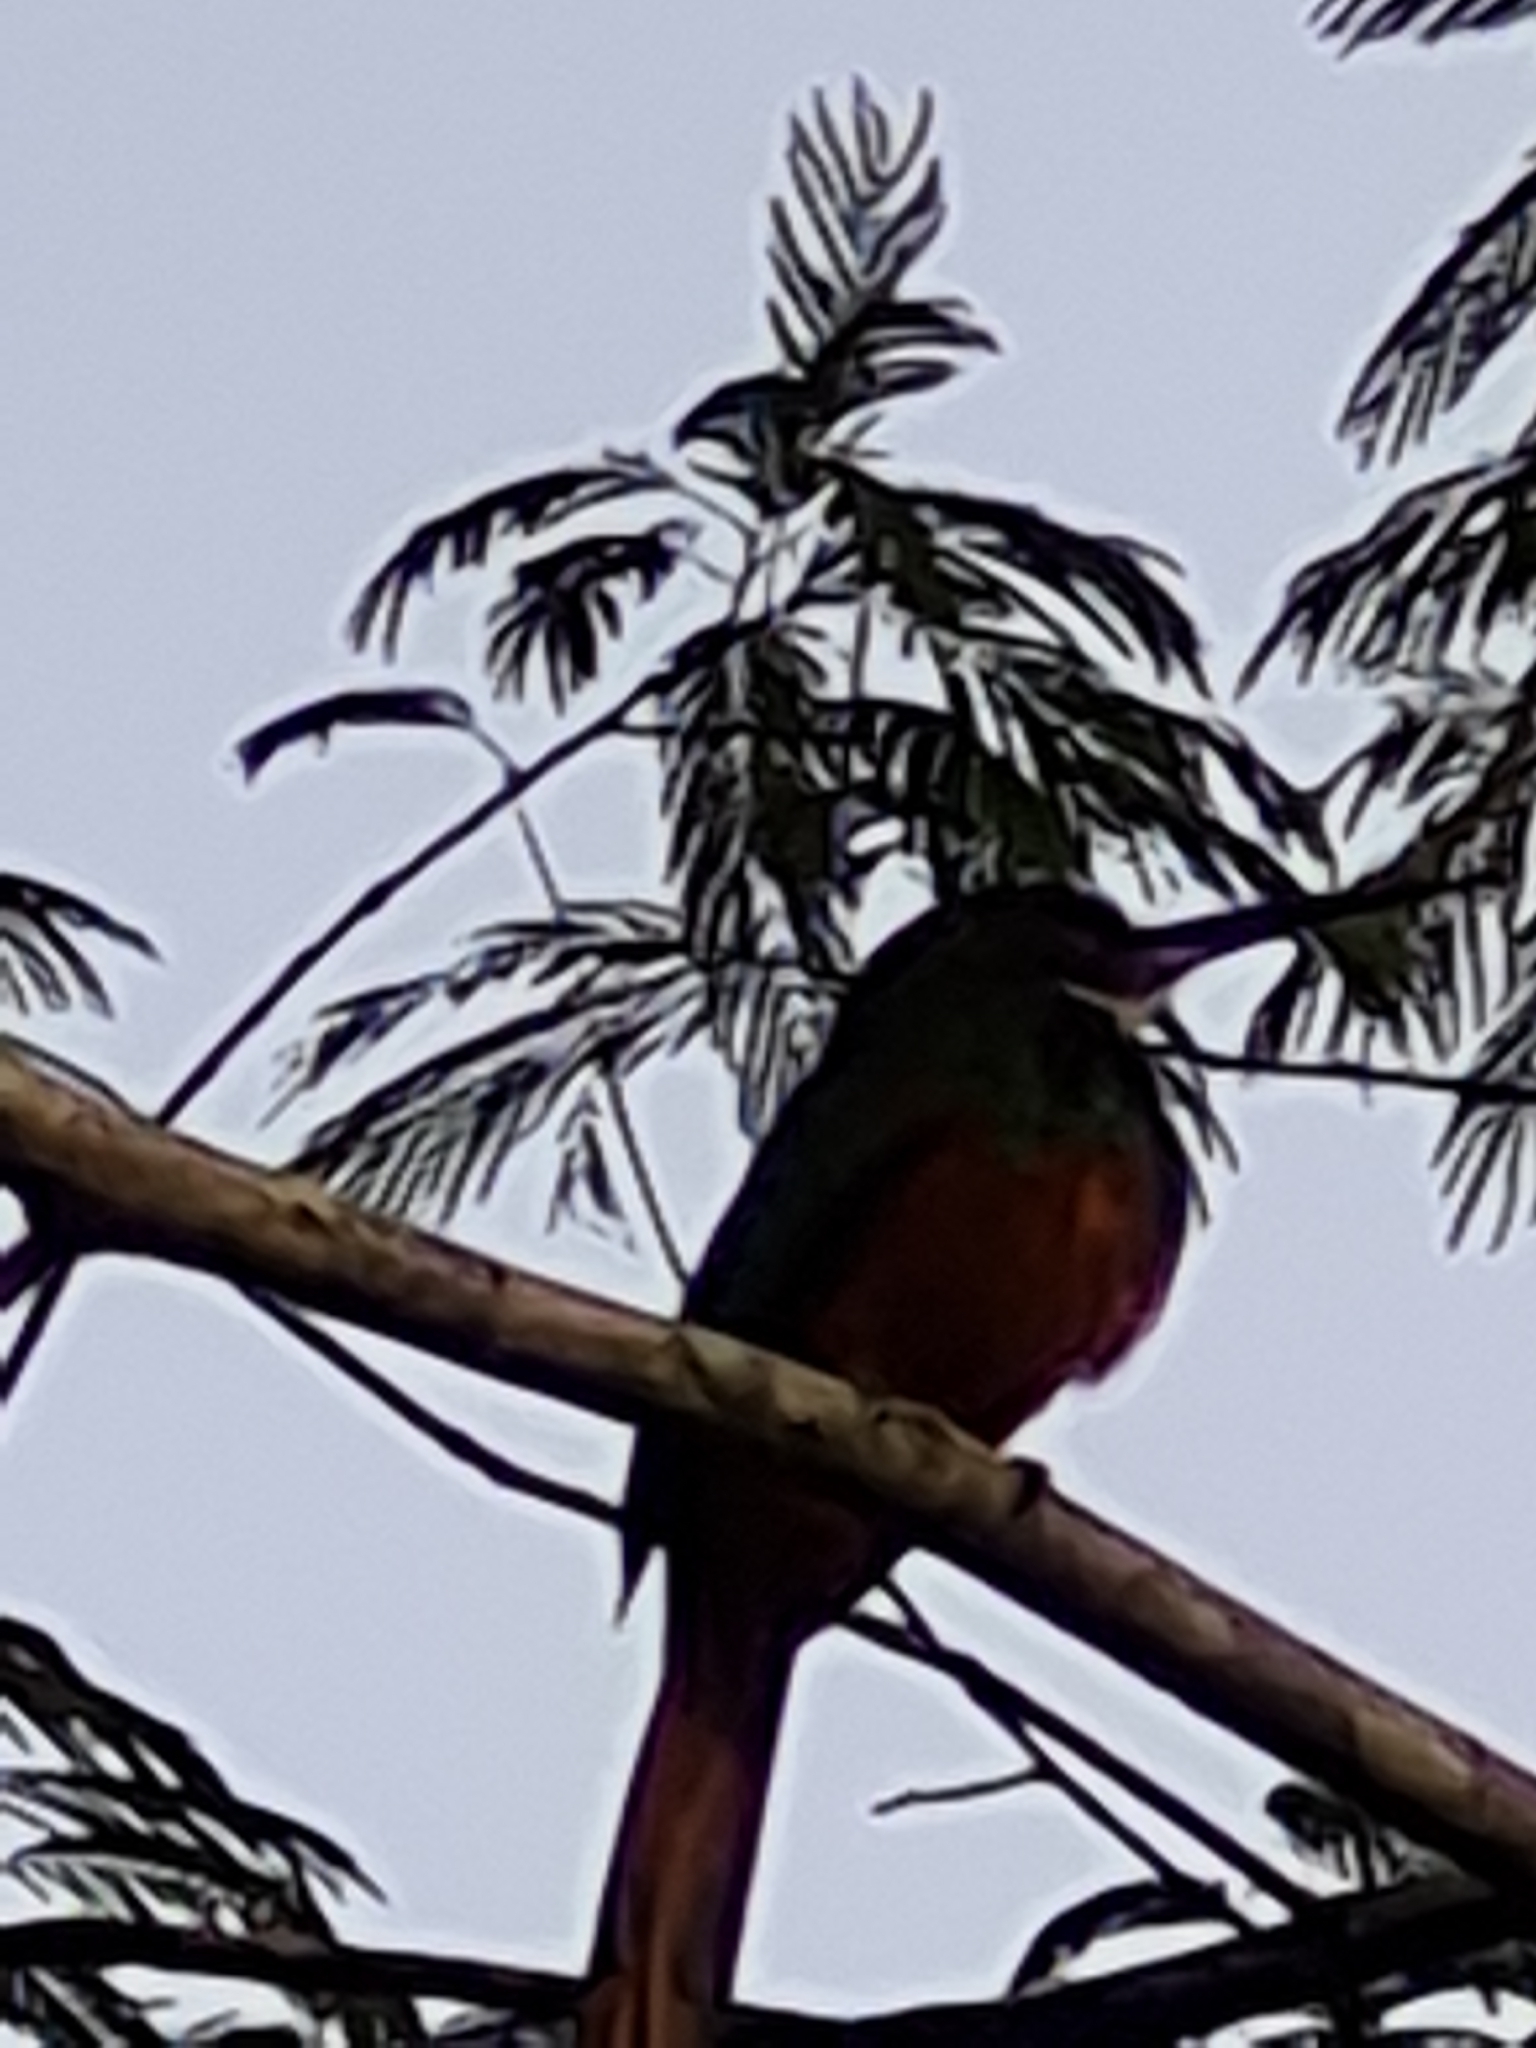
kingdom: Animalia
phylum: Chordata
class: Aves
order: Piciformes
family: Galbulidae
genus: Galbula
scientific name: Galbula ruficauda
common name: Rufous-tailed jacamar
